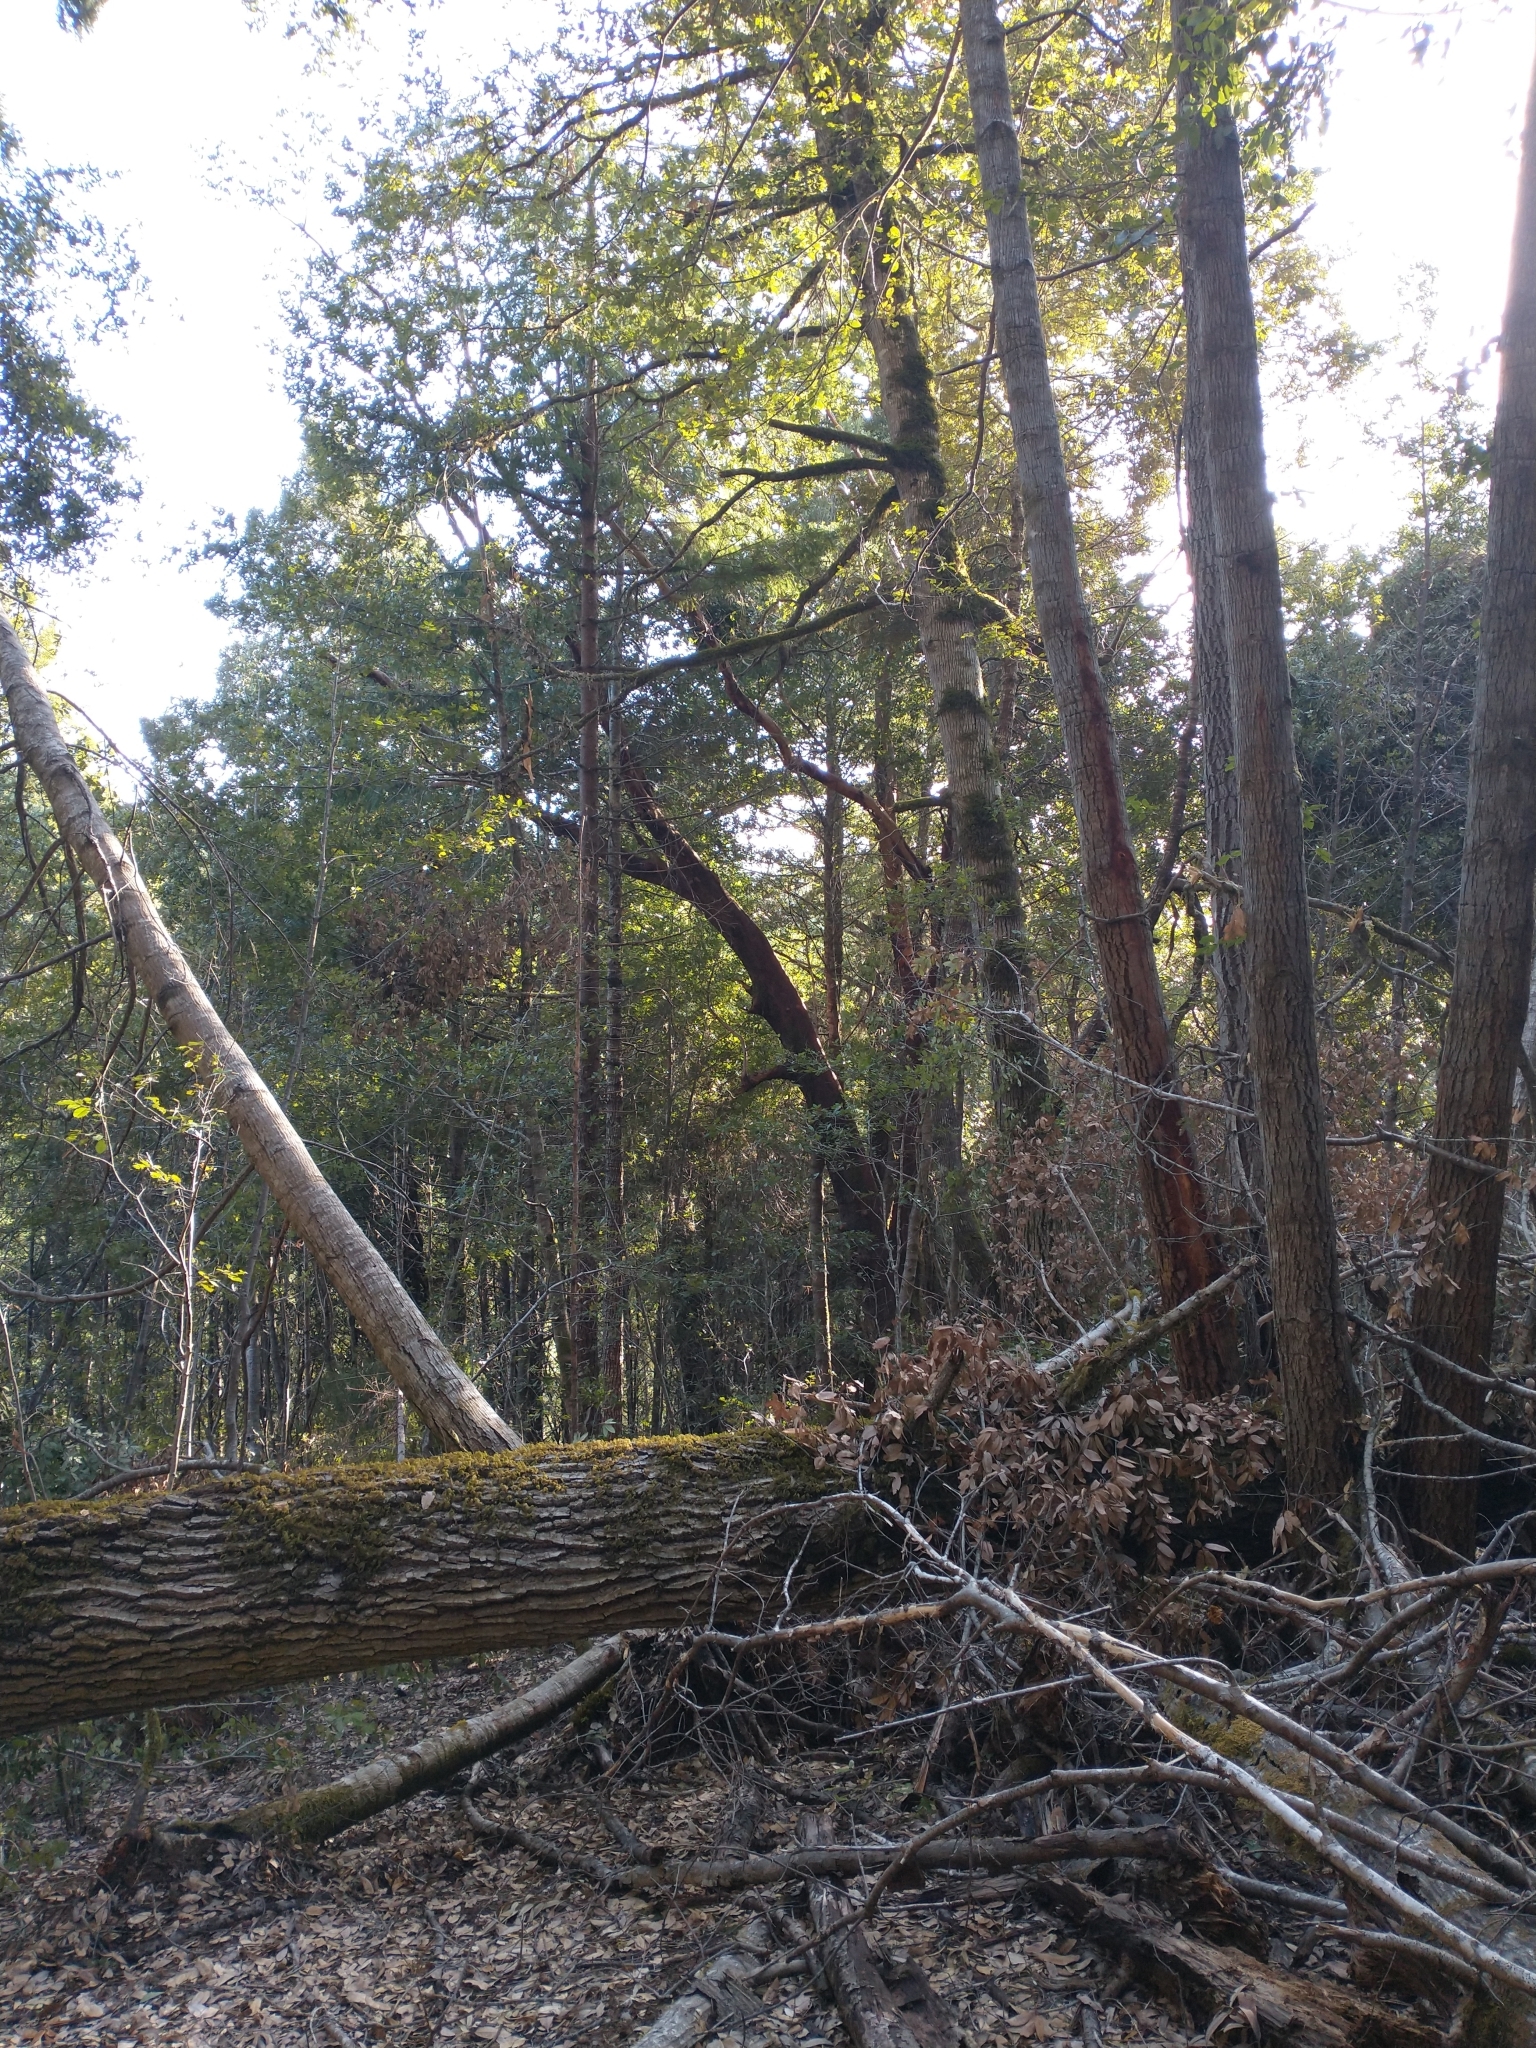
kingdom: Plantae
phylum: Tracheophyta
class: Magnoliopsida
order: Ericales
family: Ericaceae
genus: Arbutus
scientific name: Arbutus menziesii
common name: Pacific madrone
